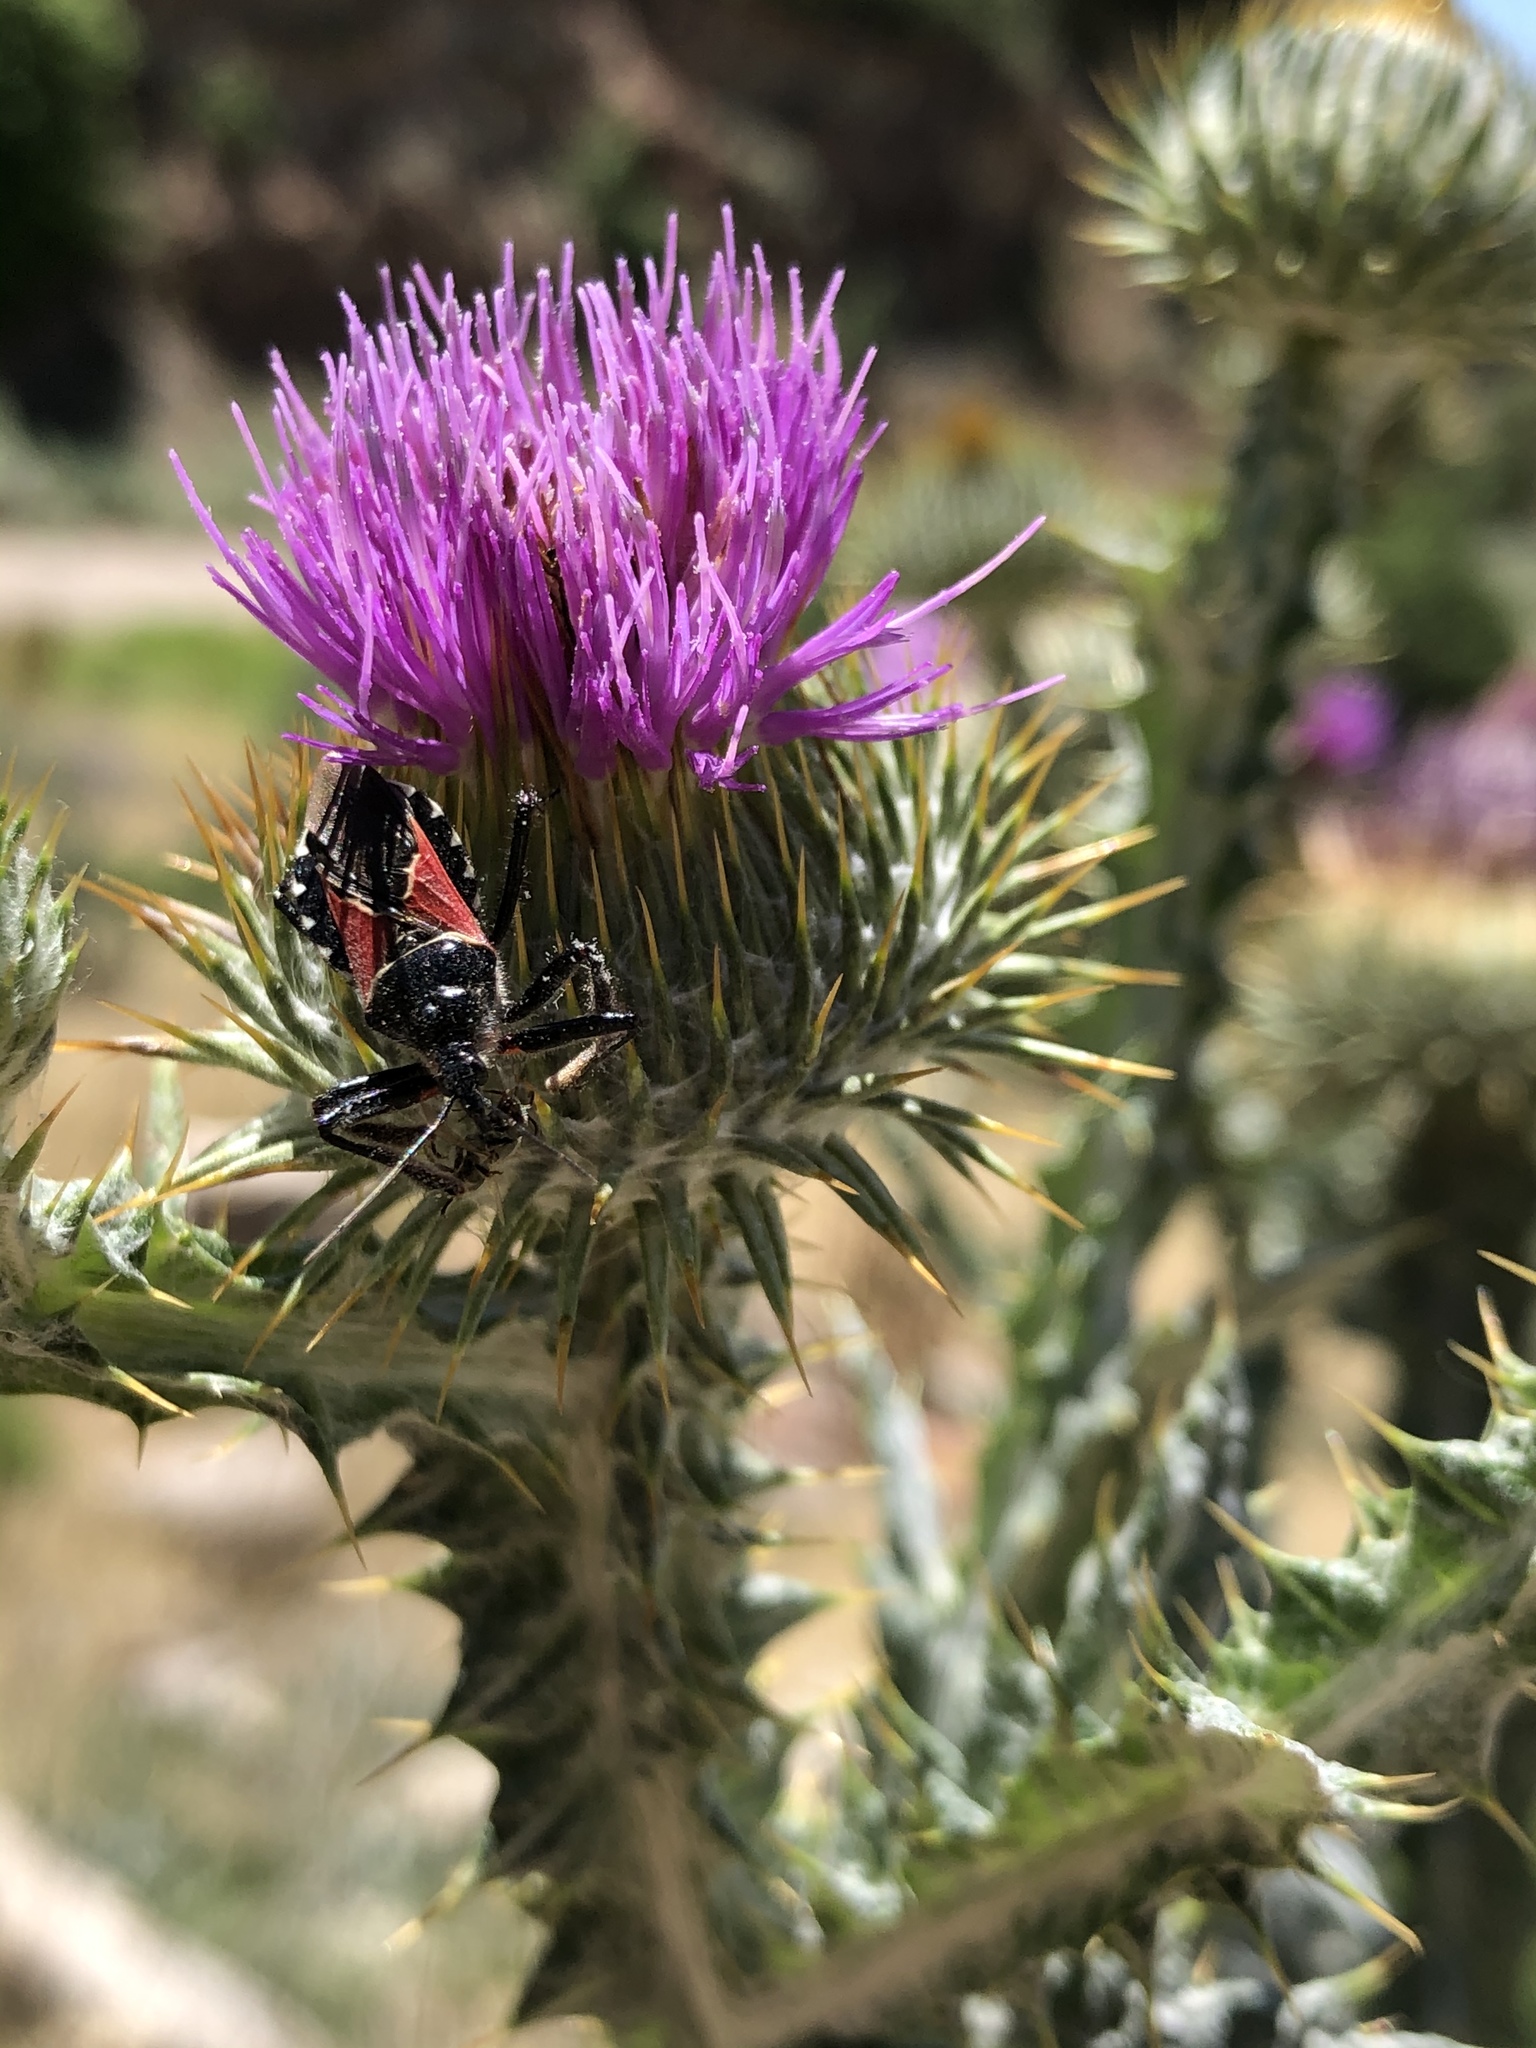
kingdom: Animalia
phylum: Arthropoda
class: Insecta
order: Hemiptera
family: Reduviidae
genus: Apiomerus
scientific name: Apiomerus montanus
